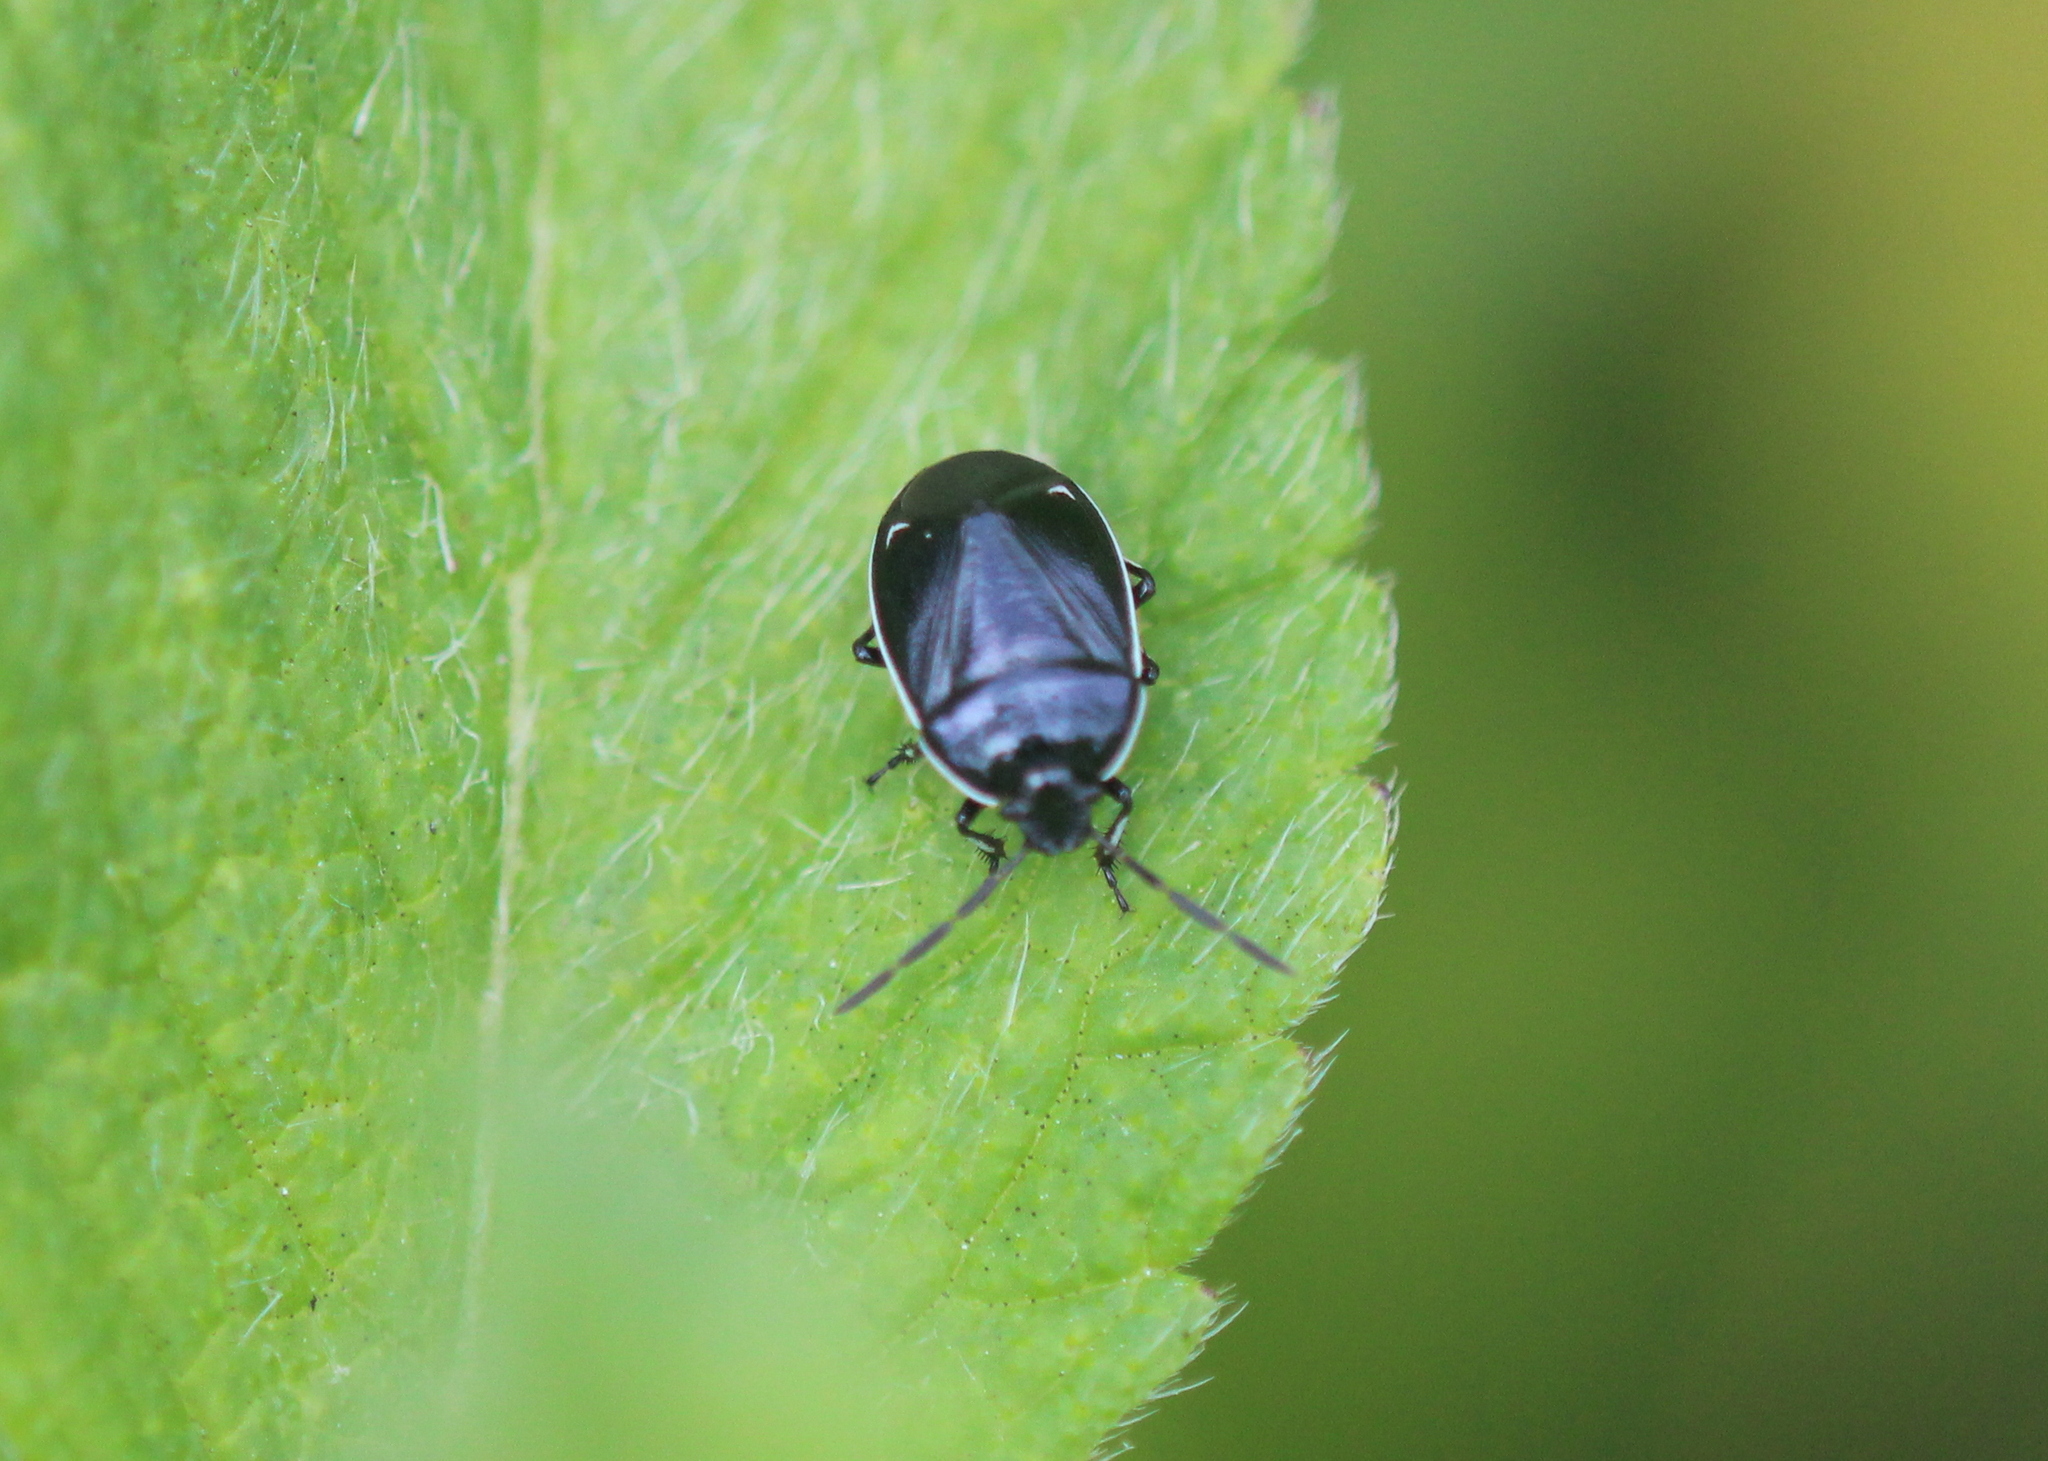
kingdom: Animalia
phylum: Arthropoda
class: Insecta
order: Hemiptera
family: Cydnidae
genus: Sehirus
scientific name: Sehirus cinctus
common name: White-margined burrower bug
